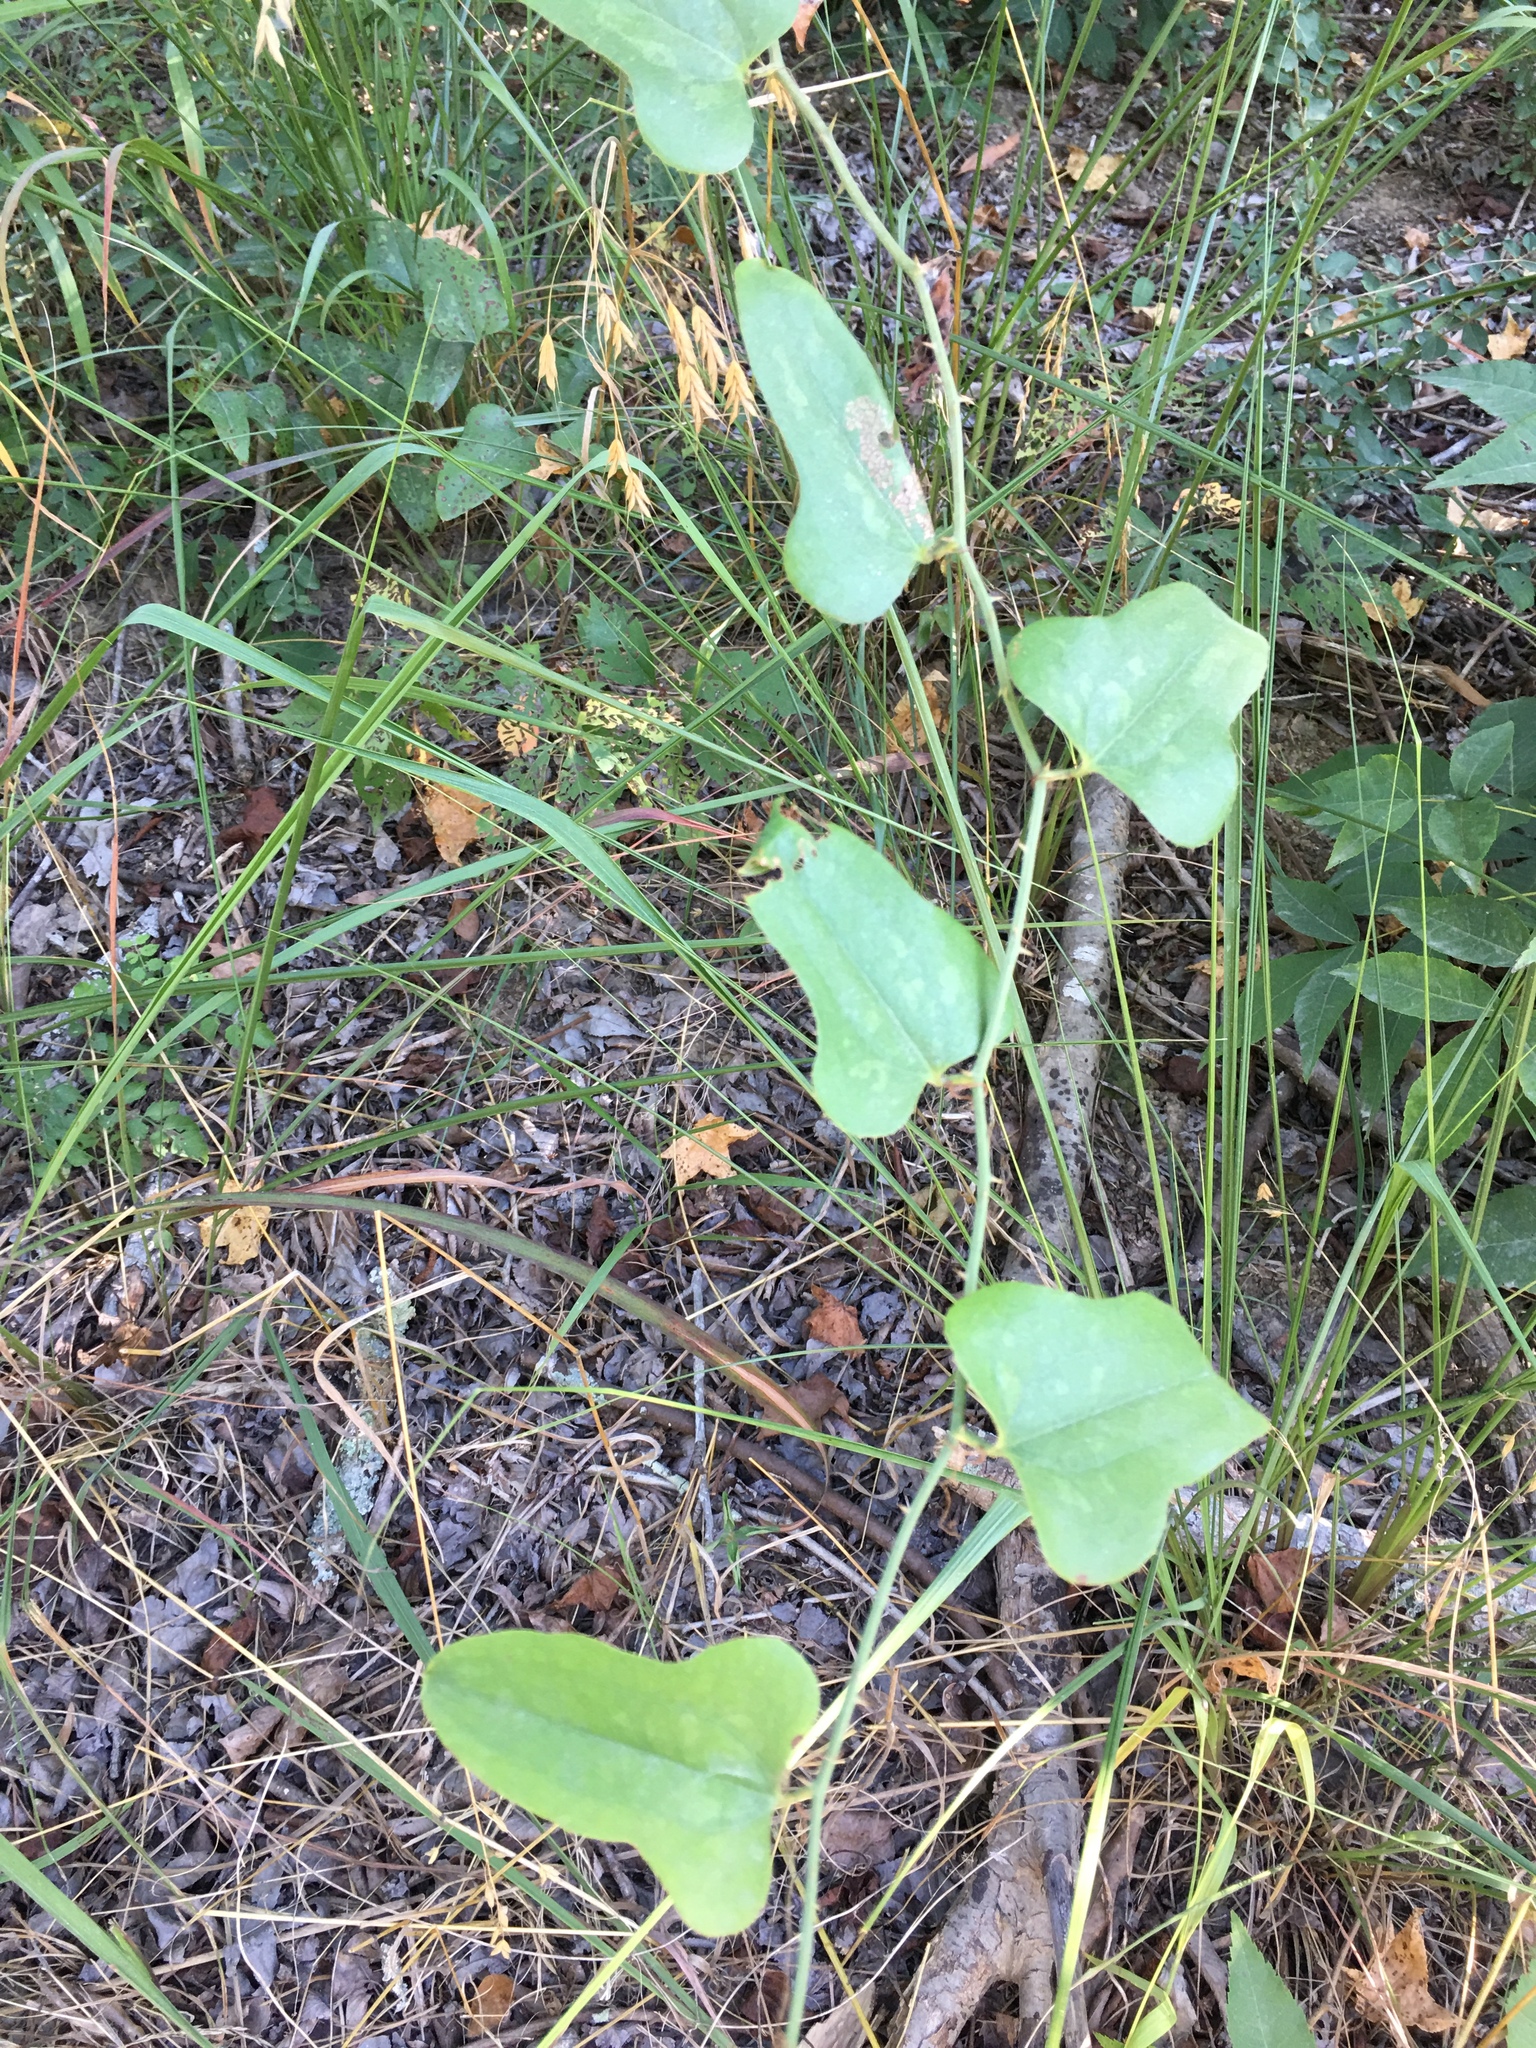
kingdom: Plantae
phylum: Tracheophyta
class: Liliopsida
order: Liliales
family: Smilacaceae
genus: Smilax
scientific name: Smilax bona-nox
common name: Catbrier
